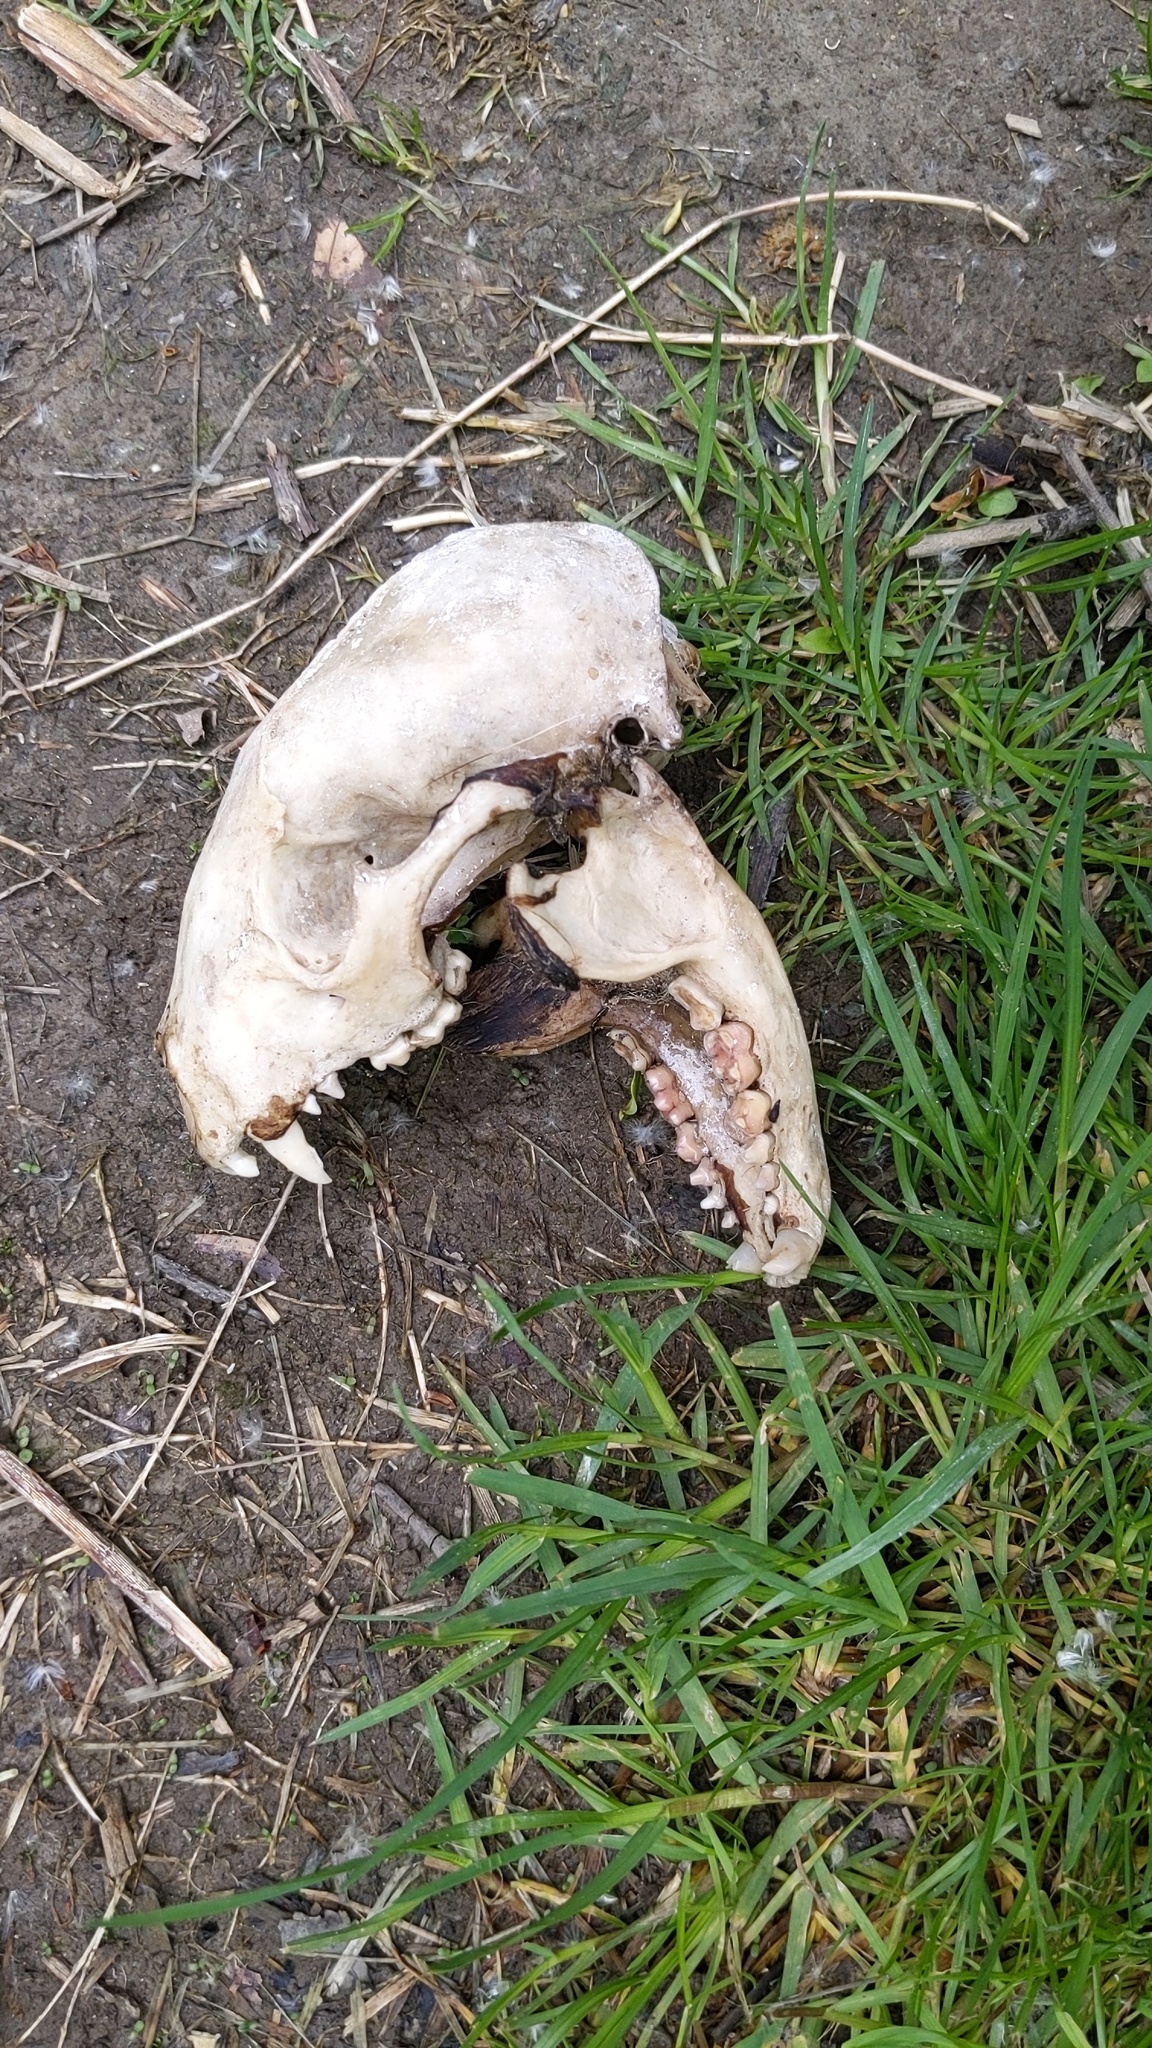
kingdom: Animalia
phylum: Chordata
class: Mammalia
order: Carnivora
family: Procyonidae
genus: Procyon
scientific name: Procyon lotor
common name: Raccoon
